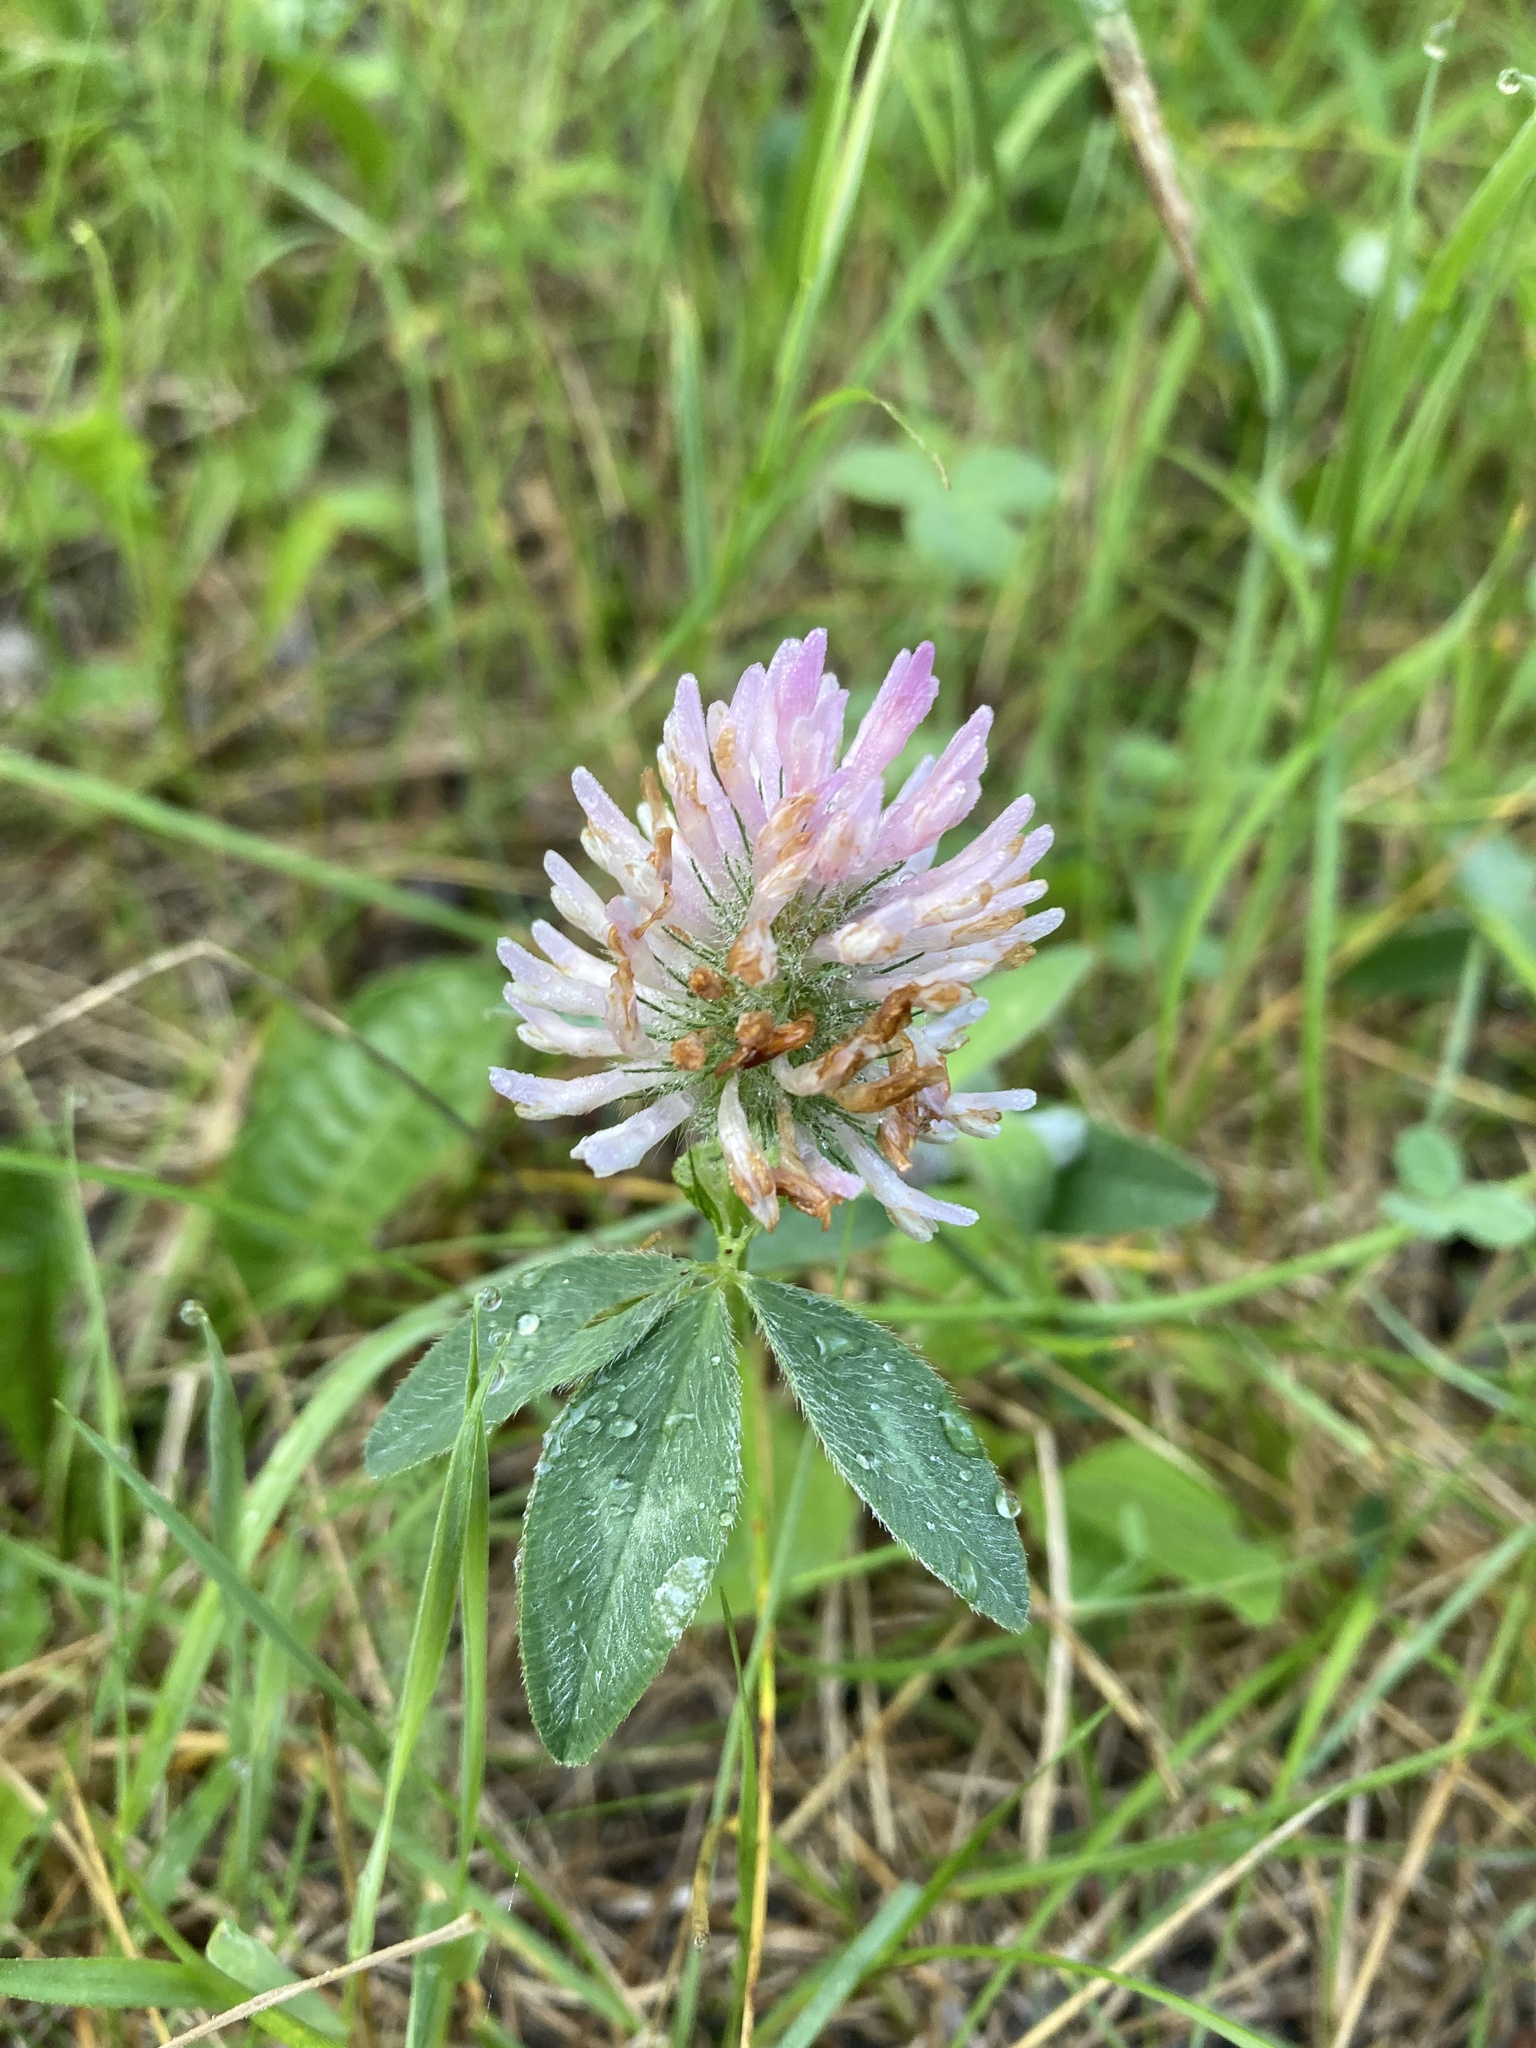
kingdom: Plantae
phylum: Tracheophyta
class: Magnoliopsida
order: Fabales
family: Fabaceae
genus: Trifolium
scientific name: Trifolium pratense
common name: Red clover
